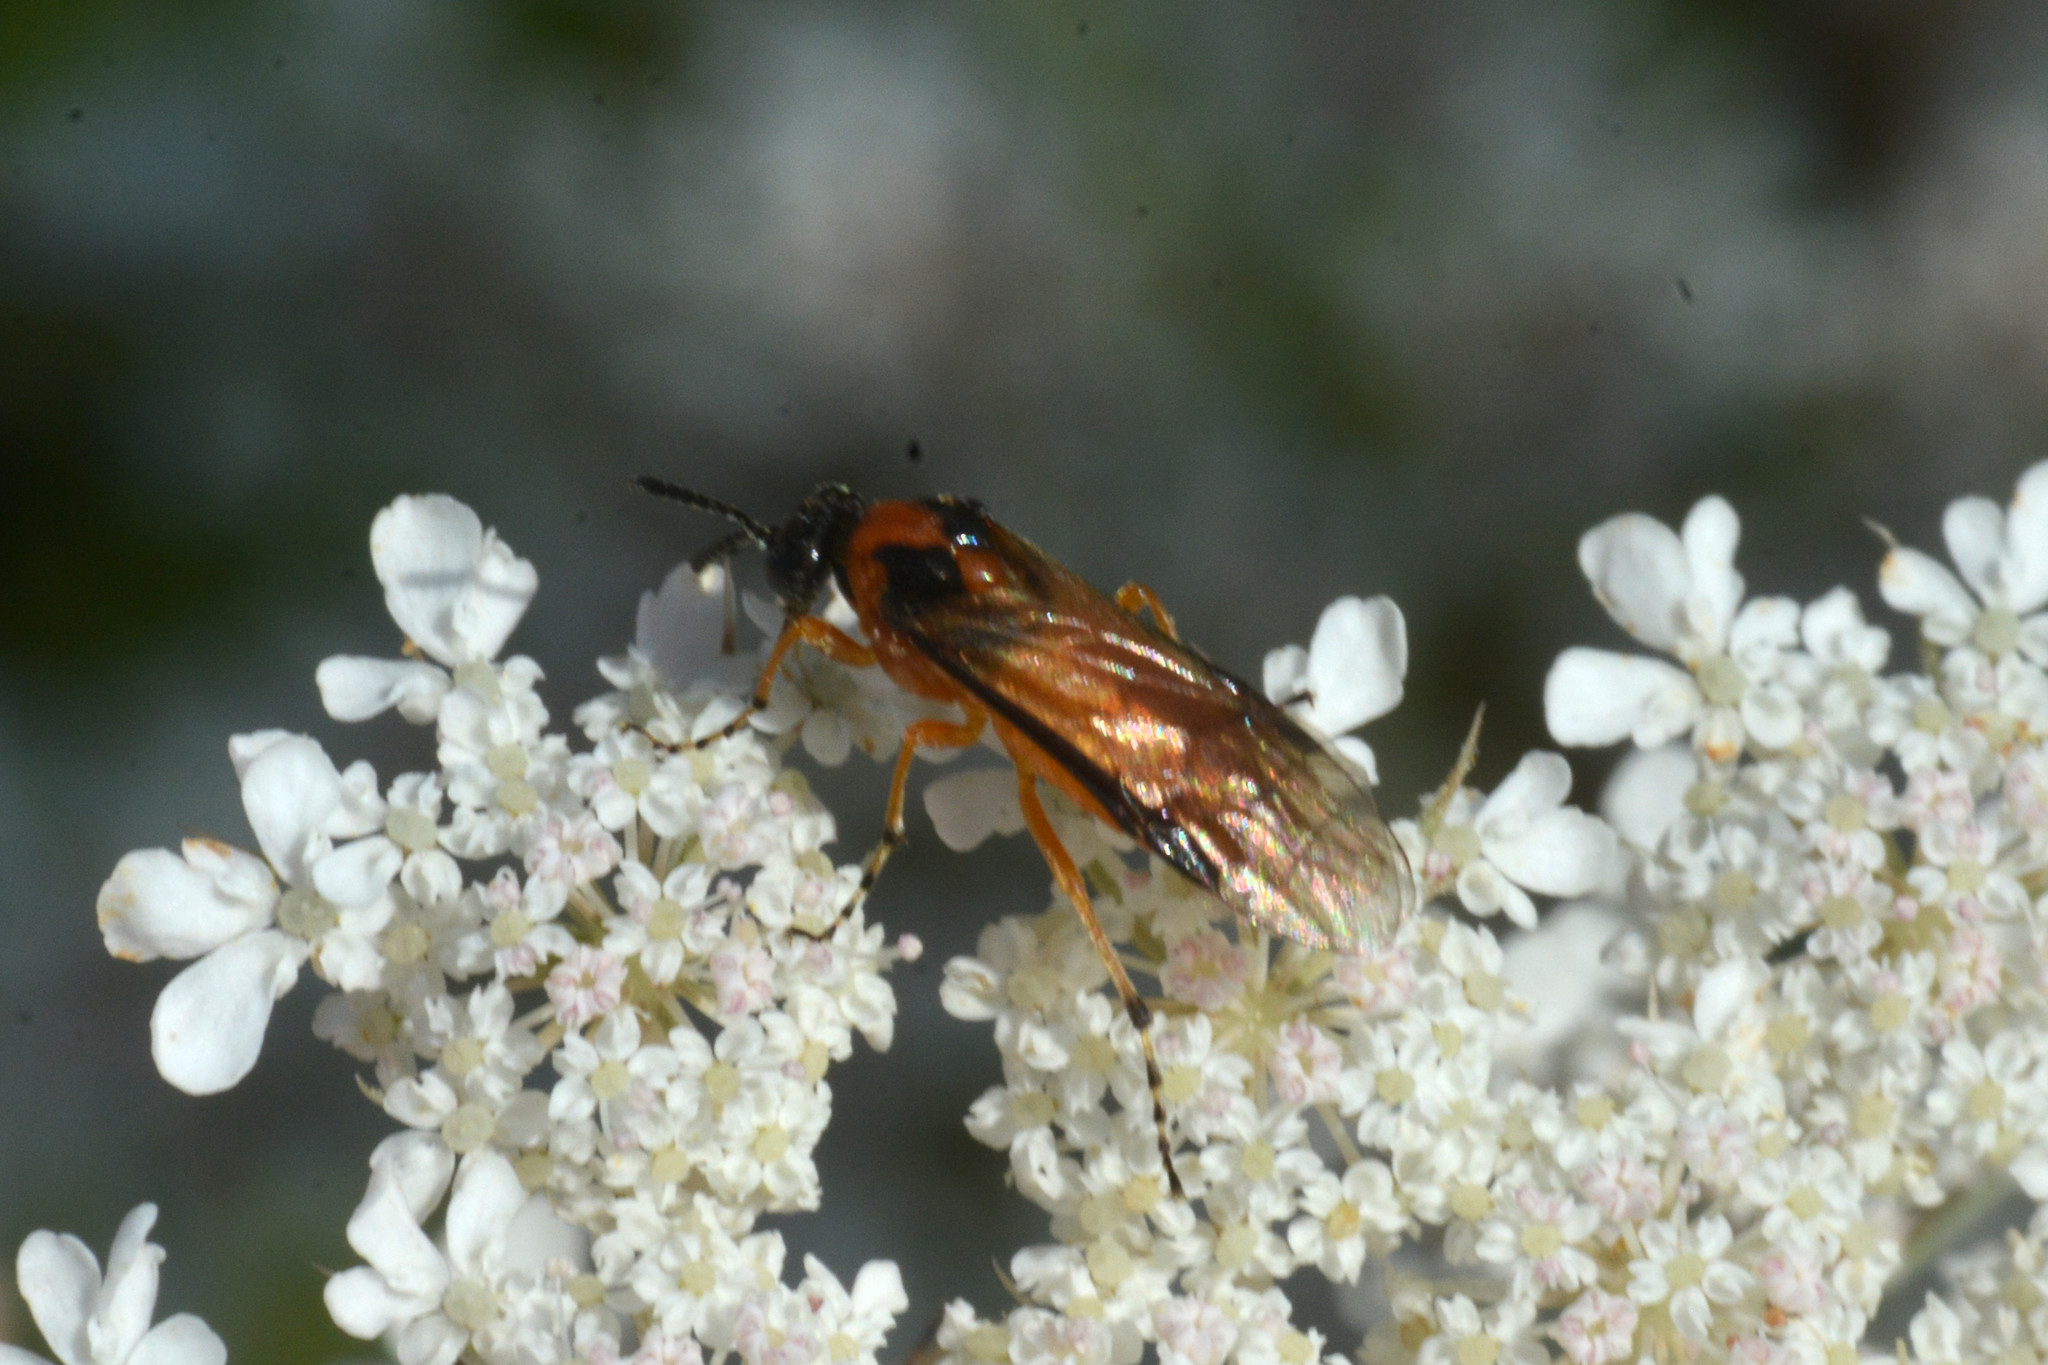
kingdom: Animalia
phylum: Arthropoda
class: Insecta
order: Hymenoptera
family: Tenthredinidae
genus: Athalia
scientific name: Athalia rosae
